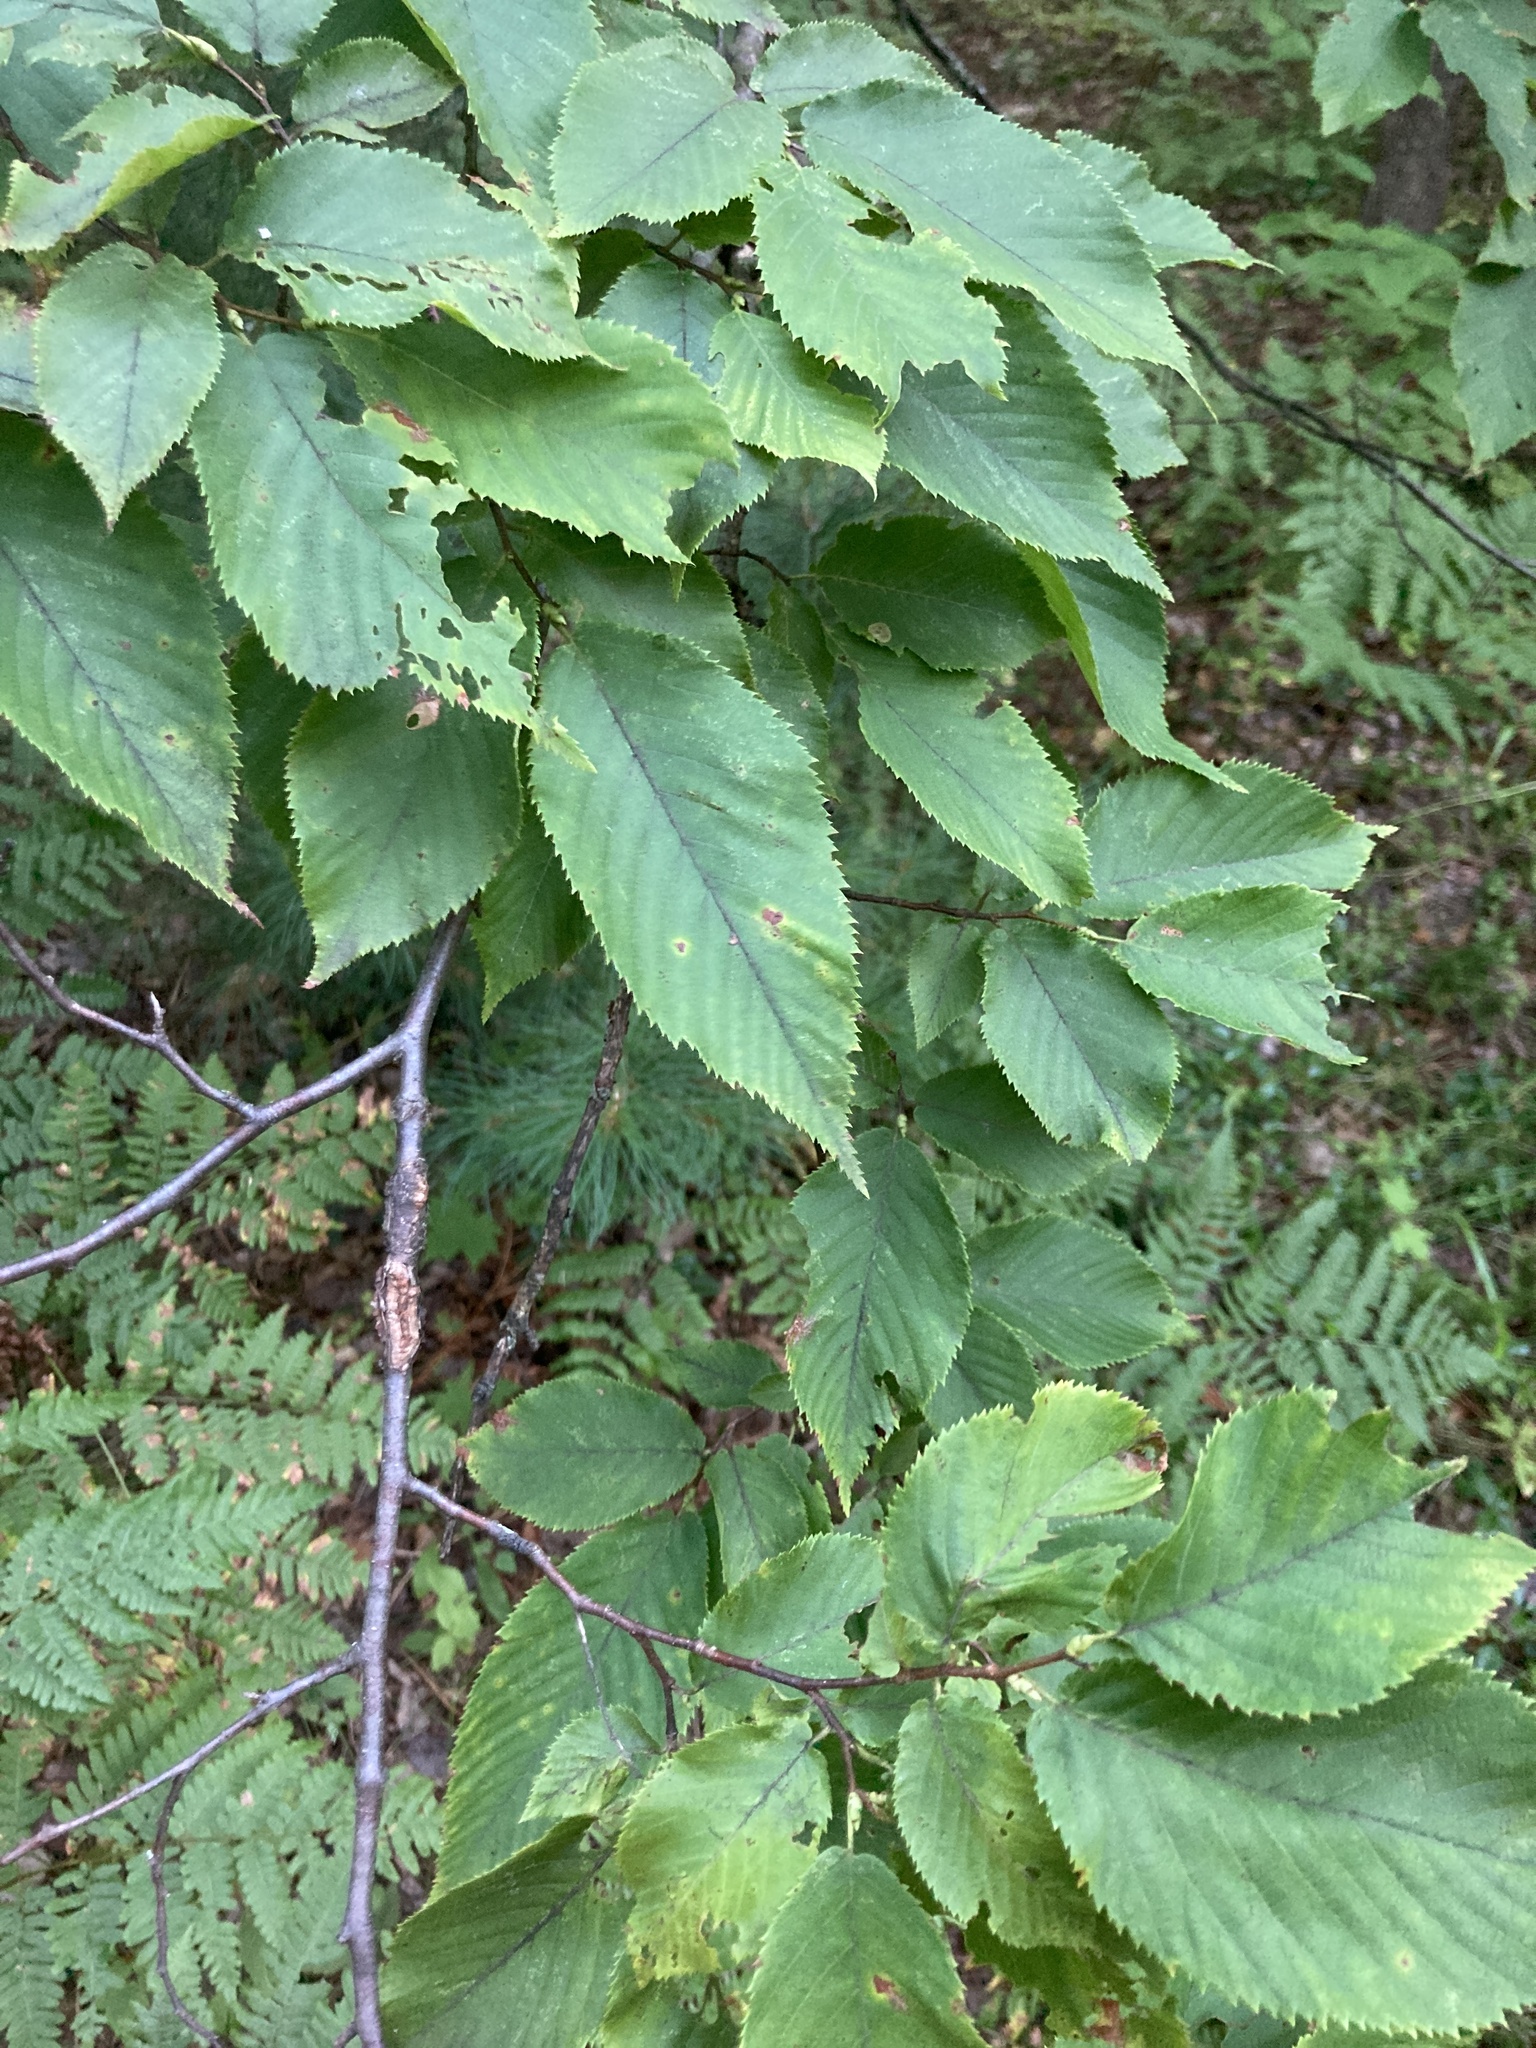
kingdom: Plantae
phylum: Tracheophyta
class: Magnoliopsida
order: Fagales
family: Betulaceae
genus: Ostrya
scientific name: Ostrya virginiana
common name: Ironwood
